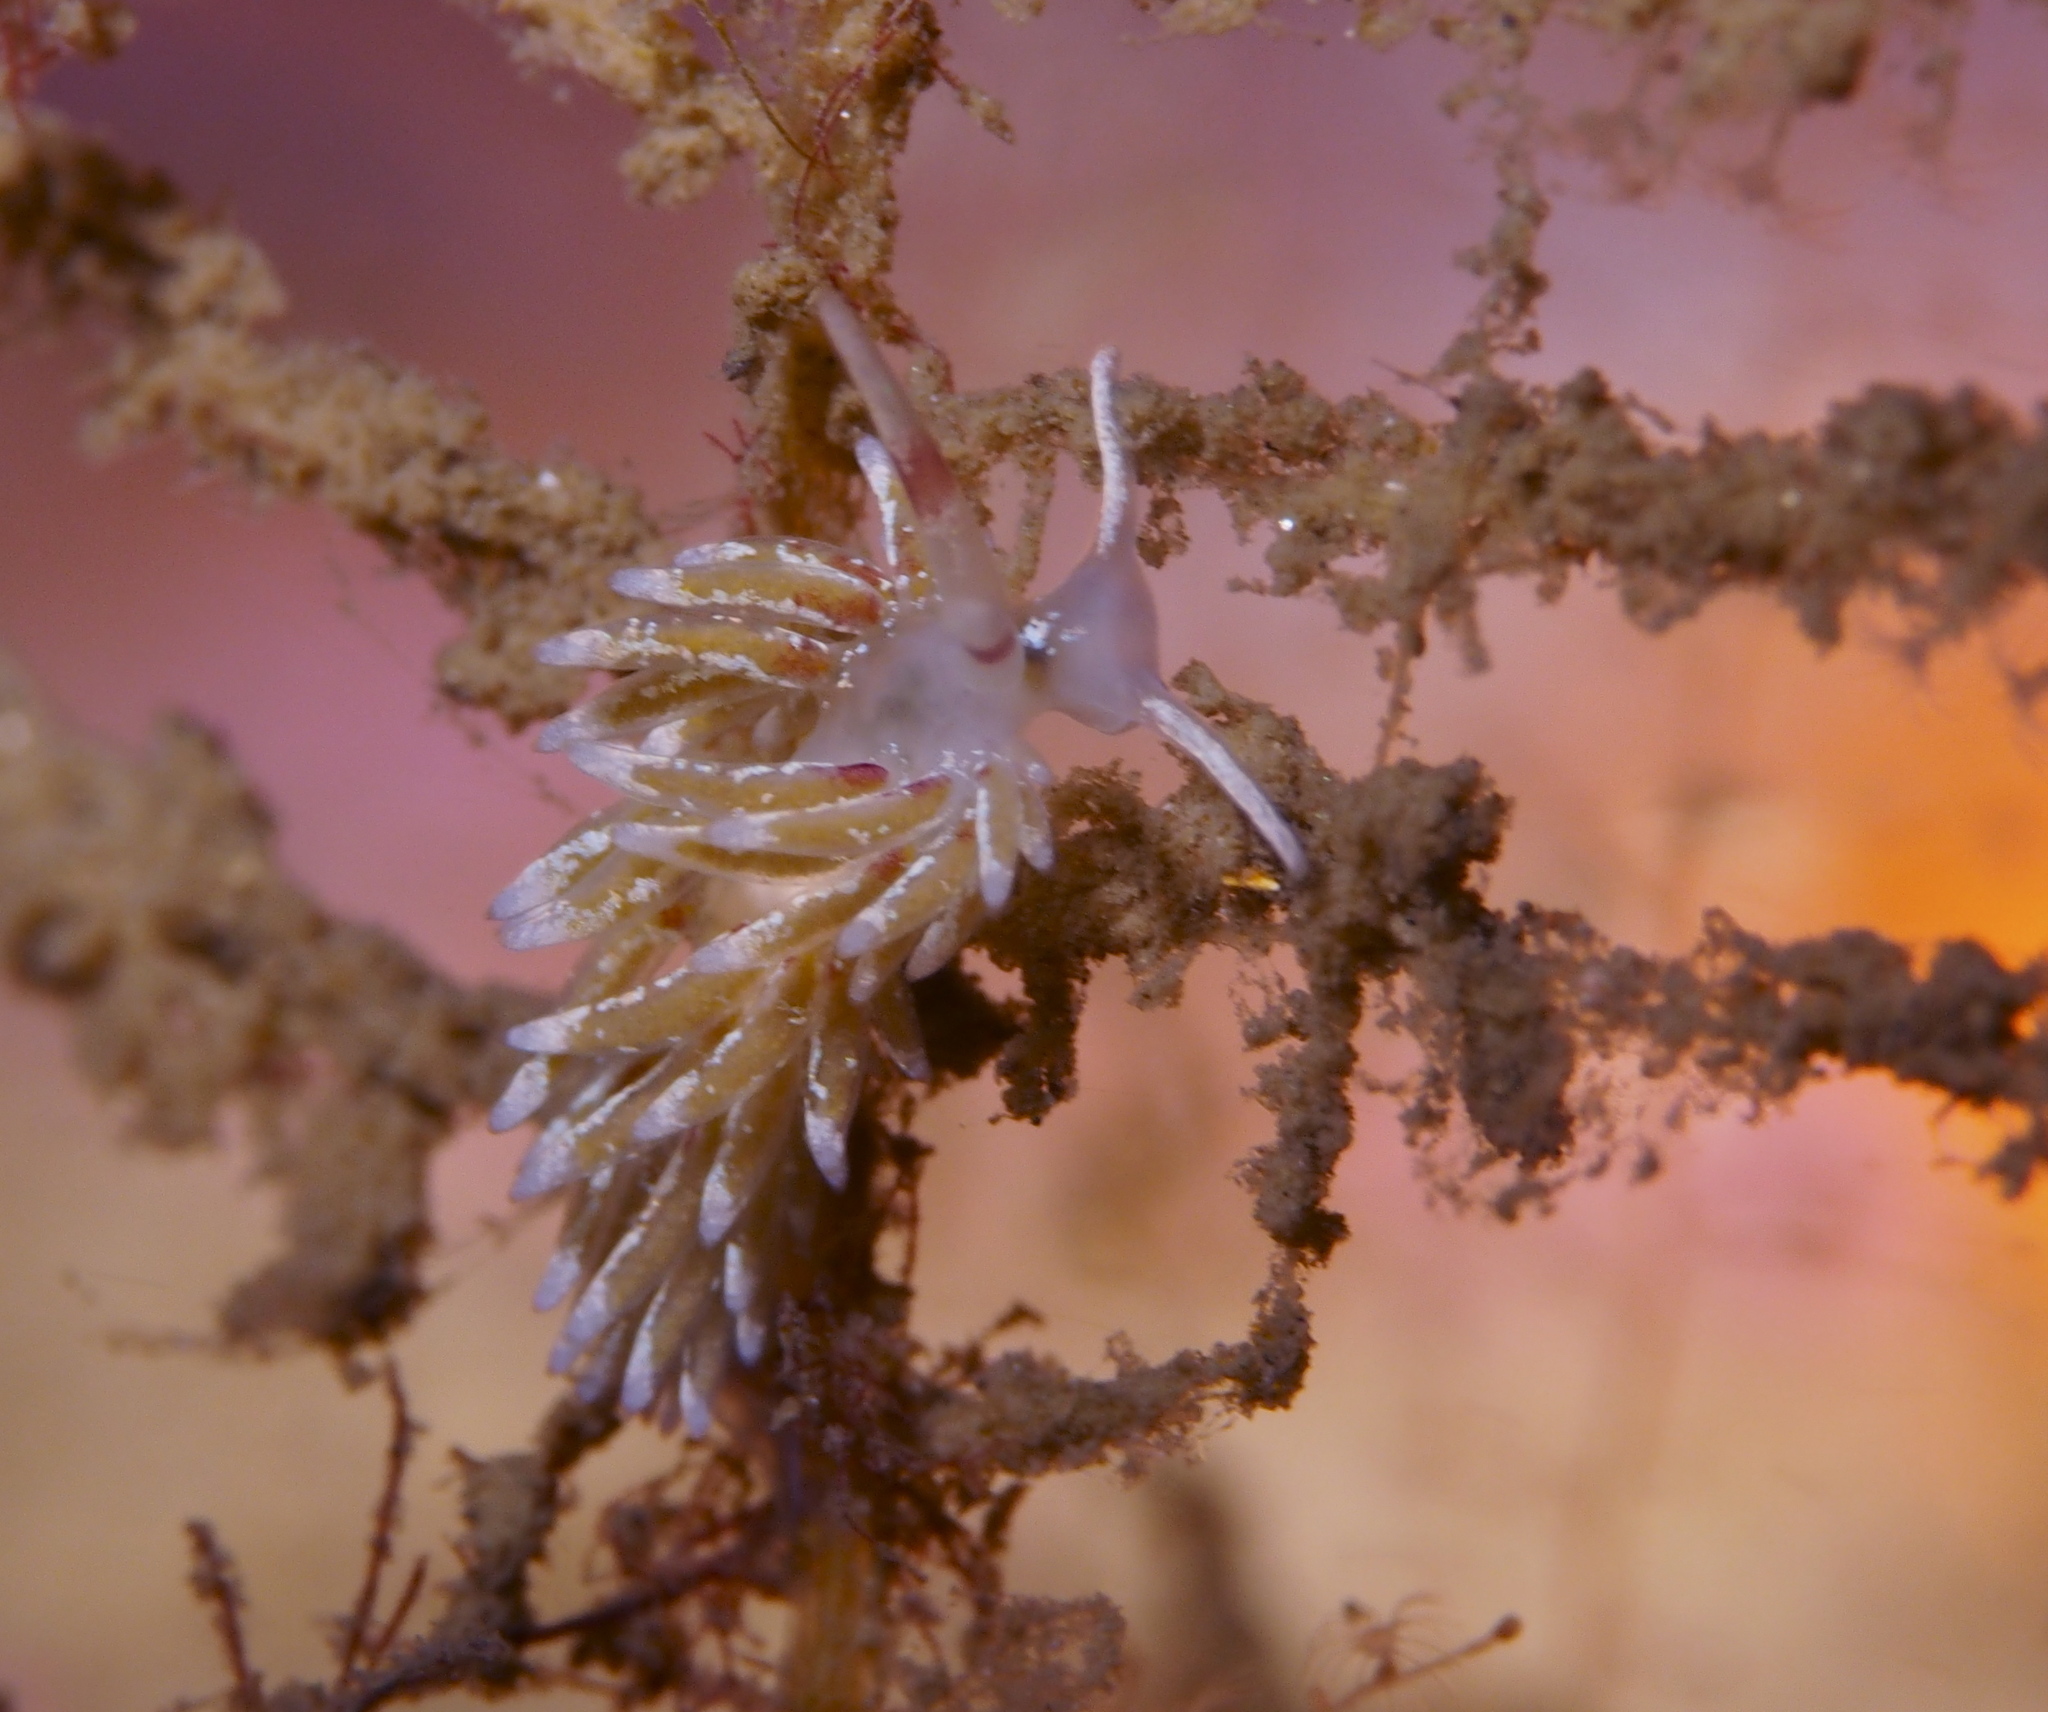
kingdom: Animalia
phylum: Mollusca
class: Gastropoda
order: Nudibranchia
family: Trinchesiidae
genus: Rubramoena
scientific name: Rubramoena rubescens
